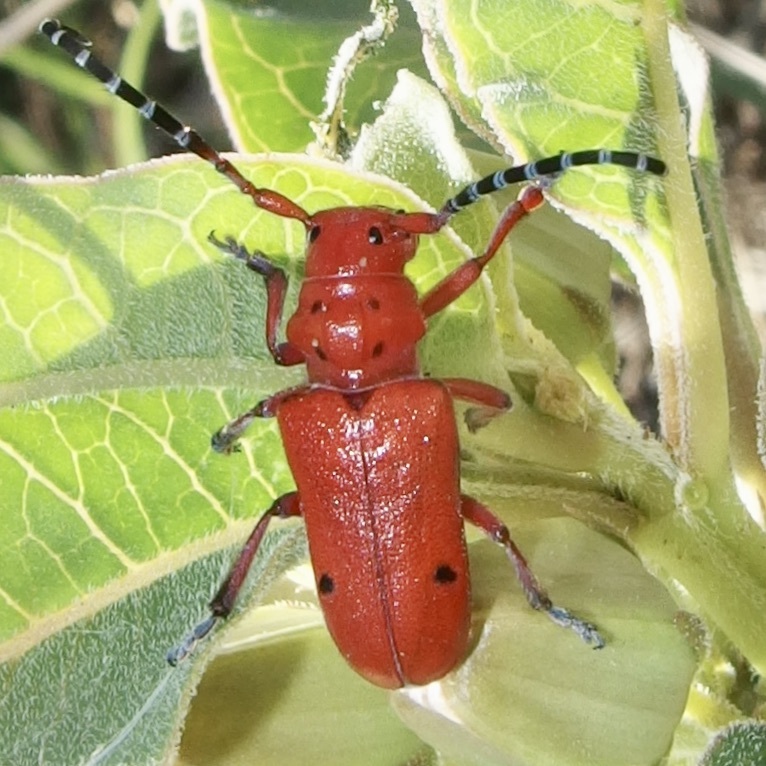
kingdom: Animalia
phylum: Arthropoda
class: Insecta
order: Coleoptera
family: Cerambycidae
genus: Tetraopes
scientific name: Tetraopes femoratus
